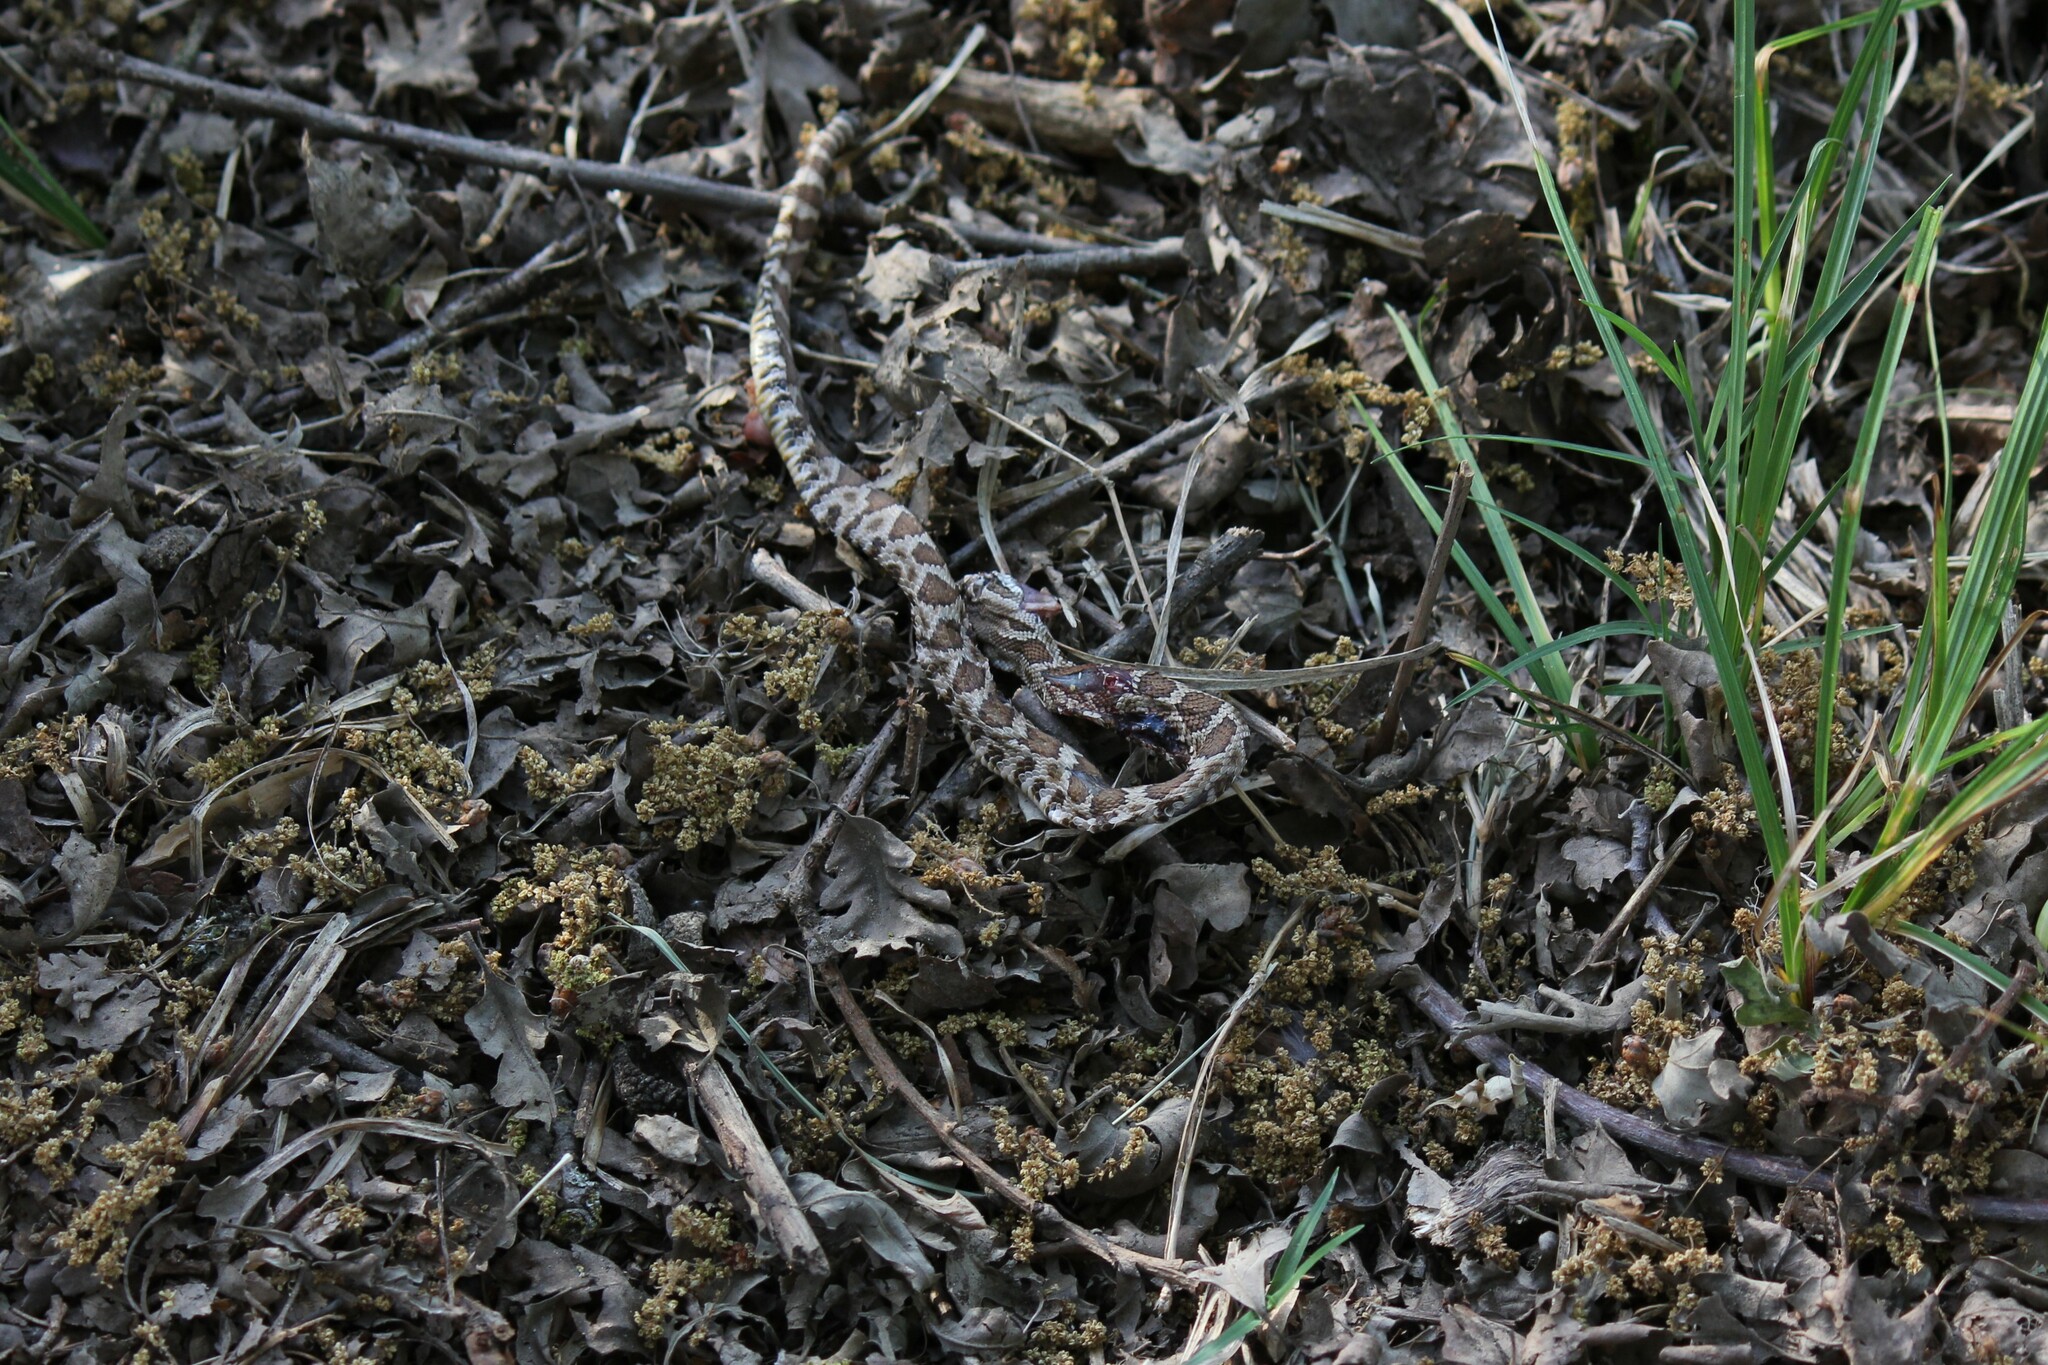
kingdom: Animalia
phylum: Chordata
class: Squamata
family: Viperidae
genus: Crotalus
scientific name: Crotalus oreganus
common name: Abyssus
